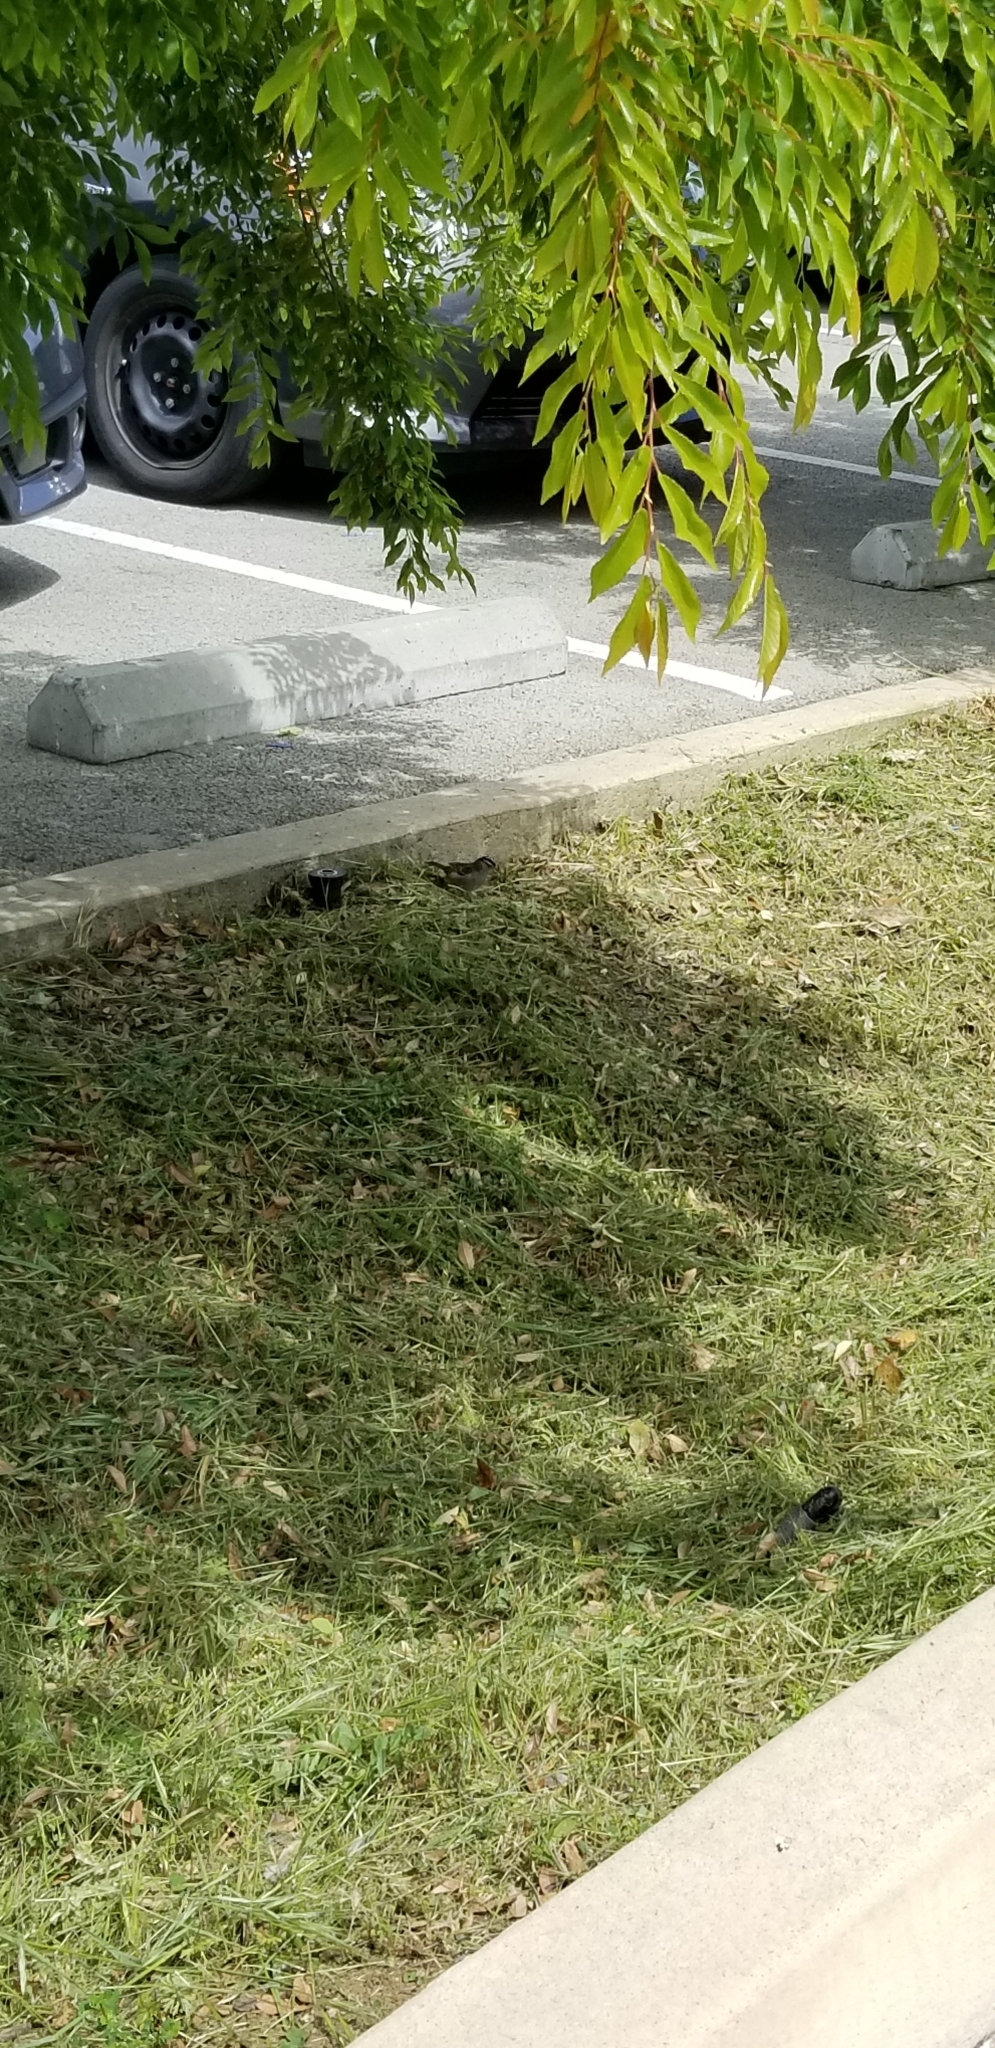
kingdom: Animalia
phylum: Chordata
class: Aves
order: Passeriformes
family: Passerellidae
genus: Zonotrichia
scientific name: Zonotrichia leucophrys
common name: White-crowned sparrow
